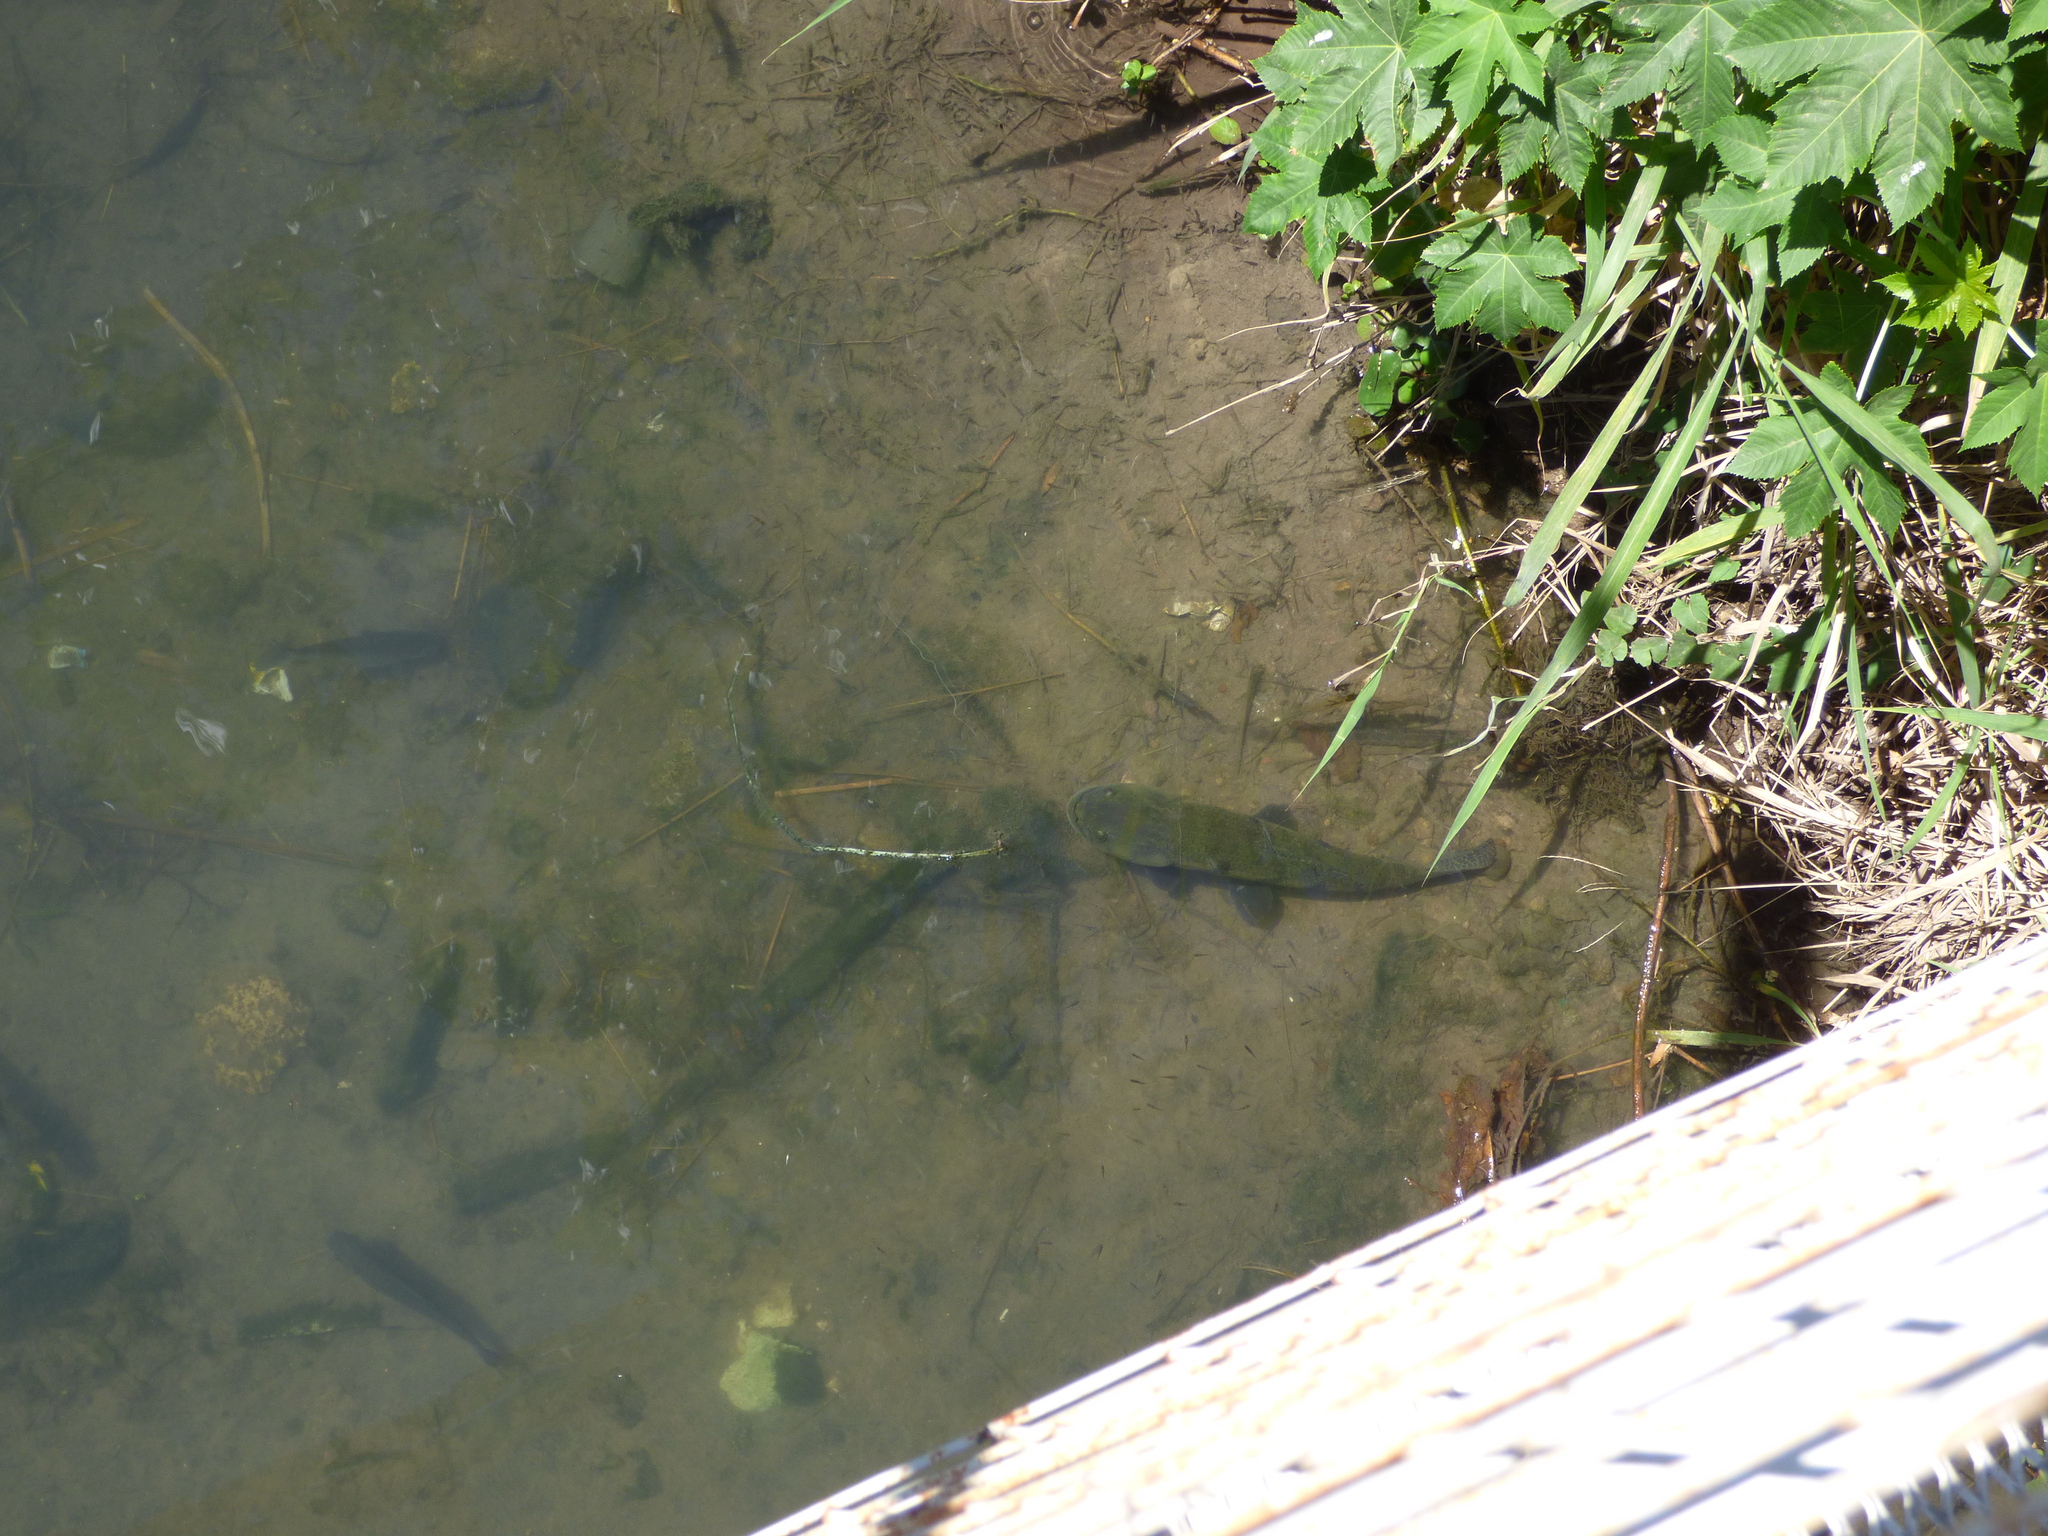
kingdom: Animalia
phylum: Chordata
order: Characiformes
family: Erythrinidae
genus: Hoplias
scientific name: Hoplias argentinensis
